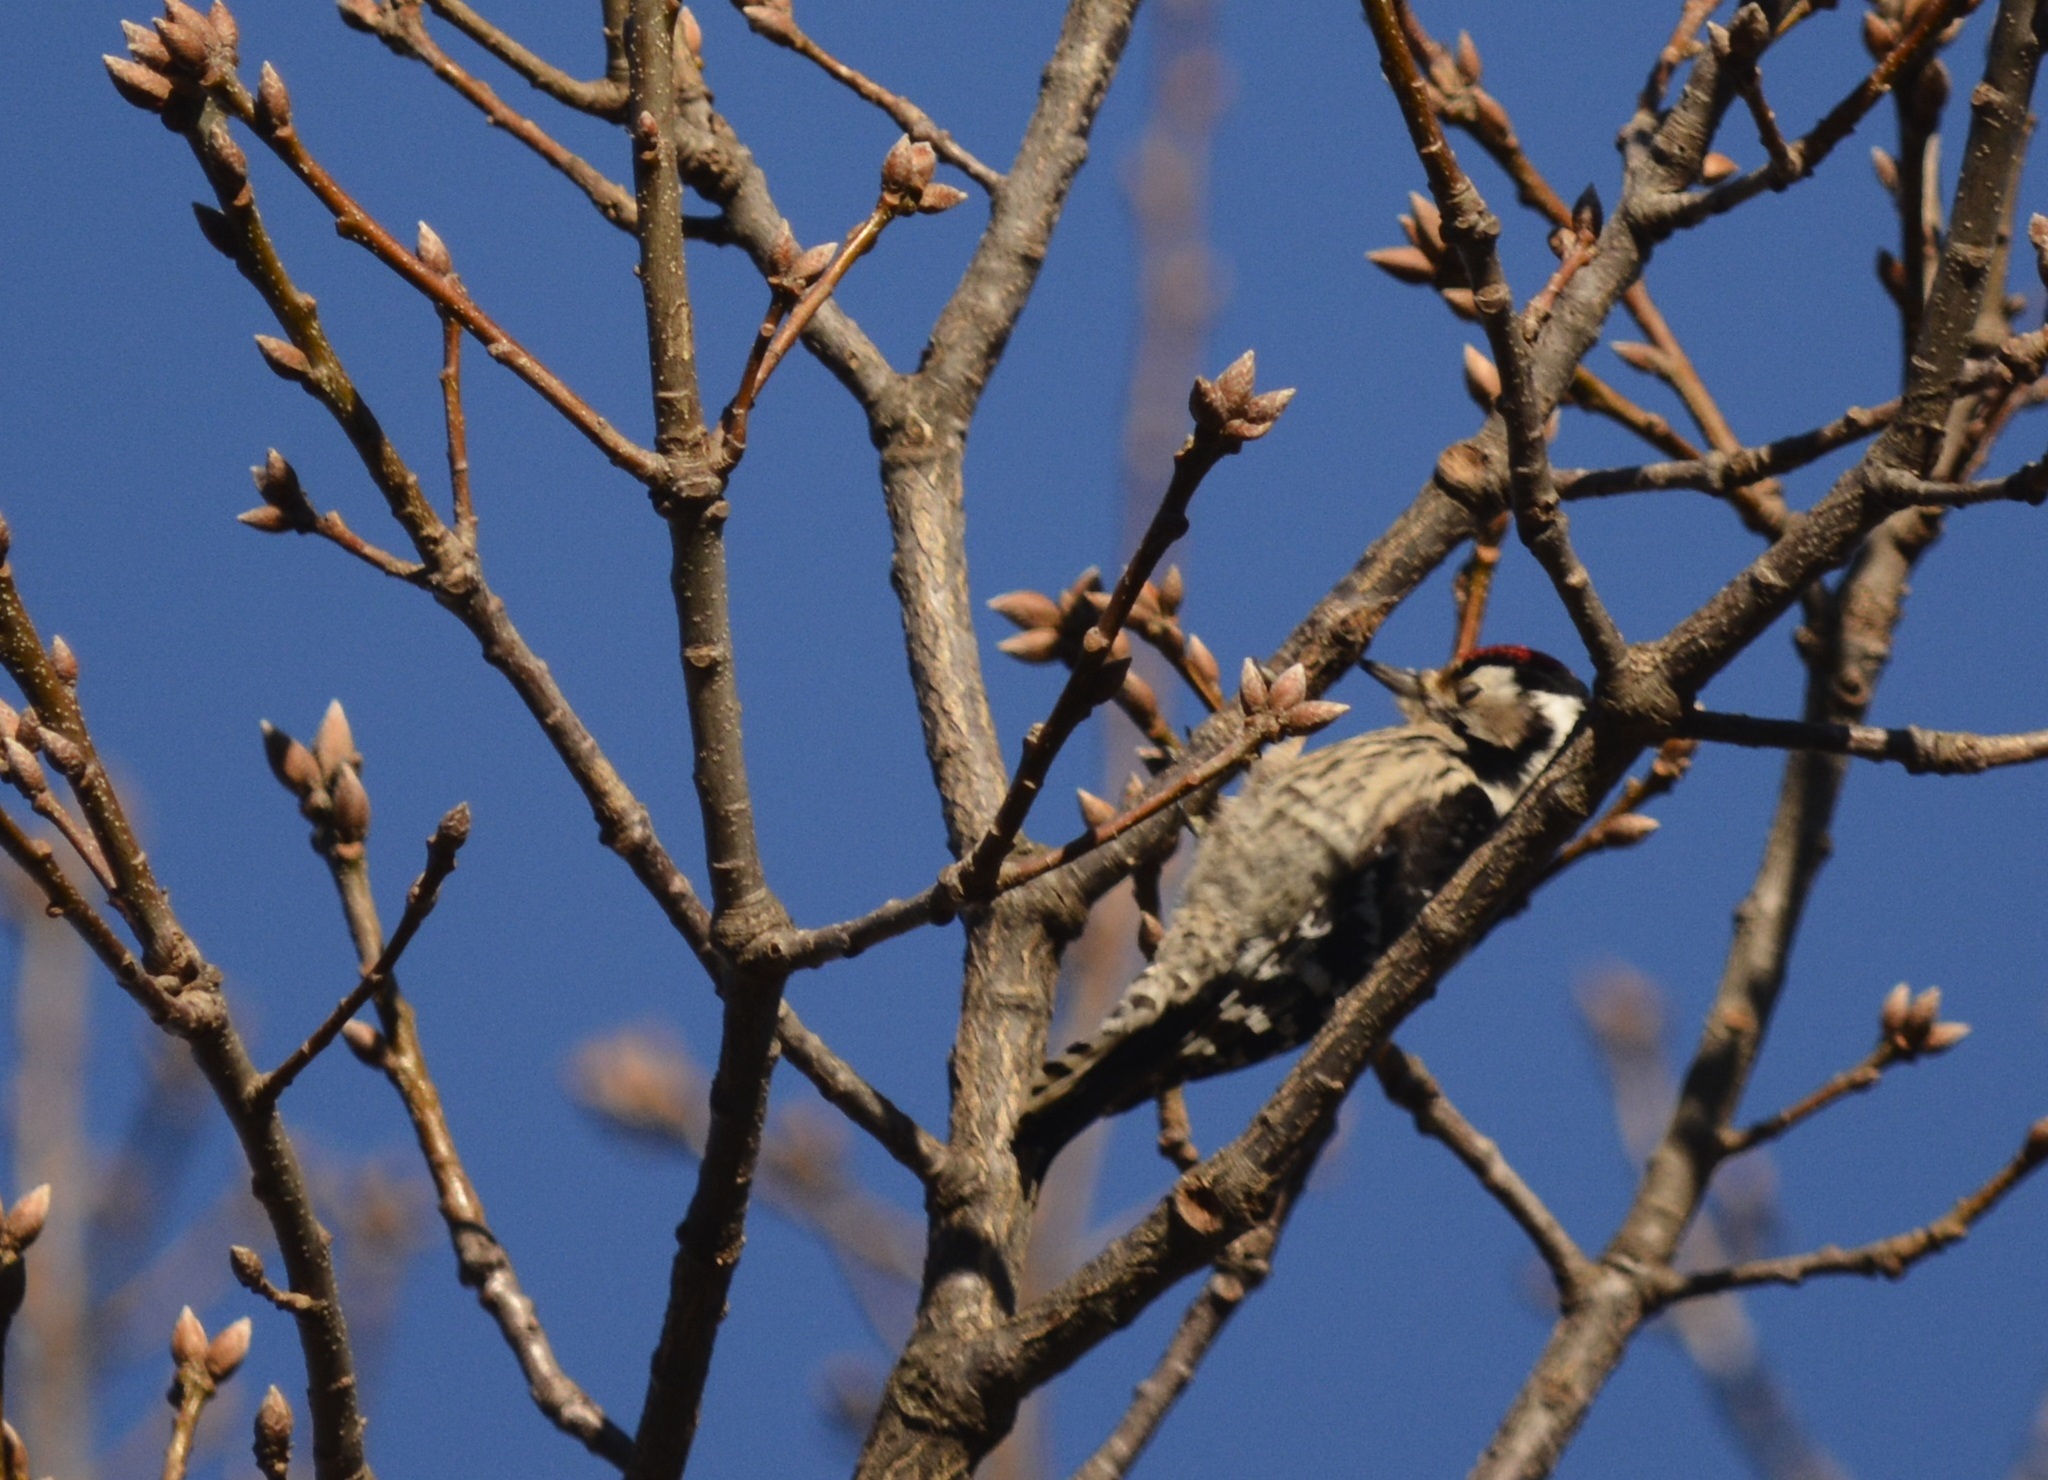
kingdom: Animalia
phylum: Chordata
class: Aves
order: Piciformes
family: Picidae
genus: Dryobates
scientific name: Dryobates minor
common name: Lesser spotted woodpecker
